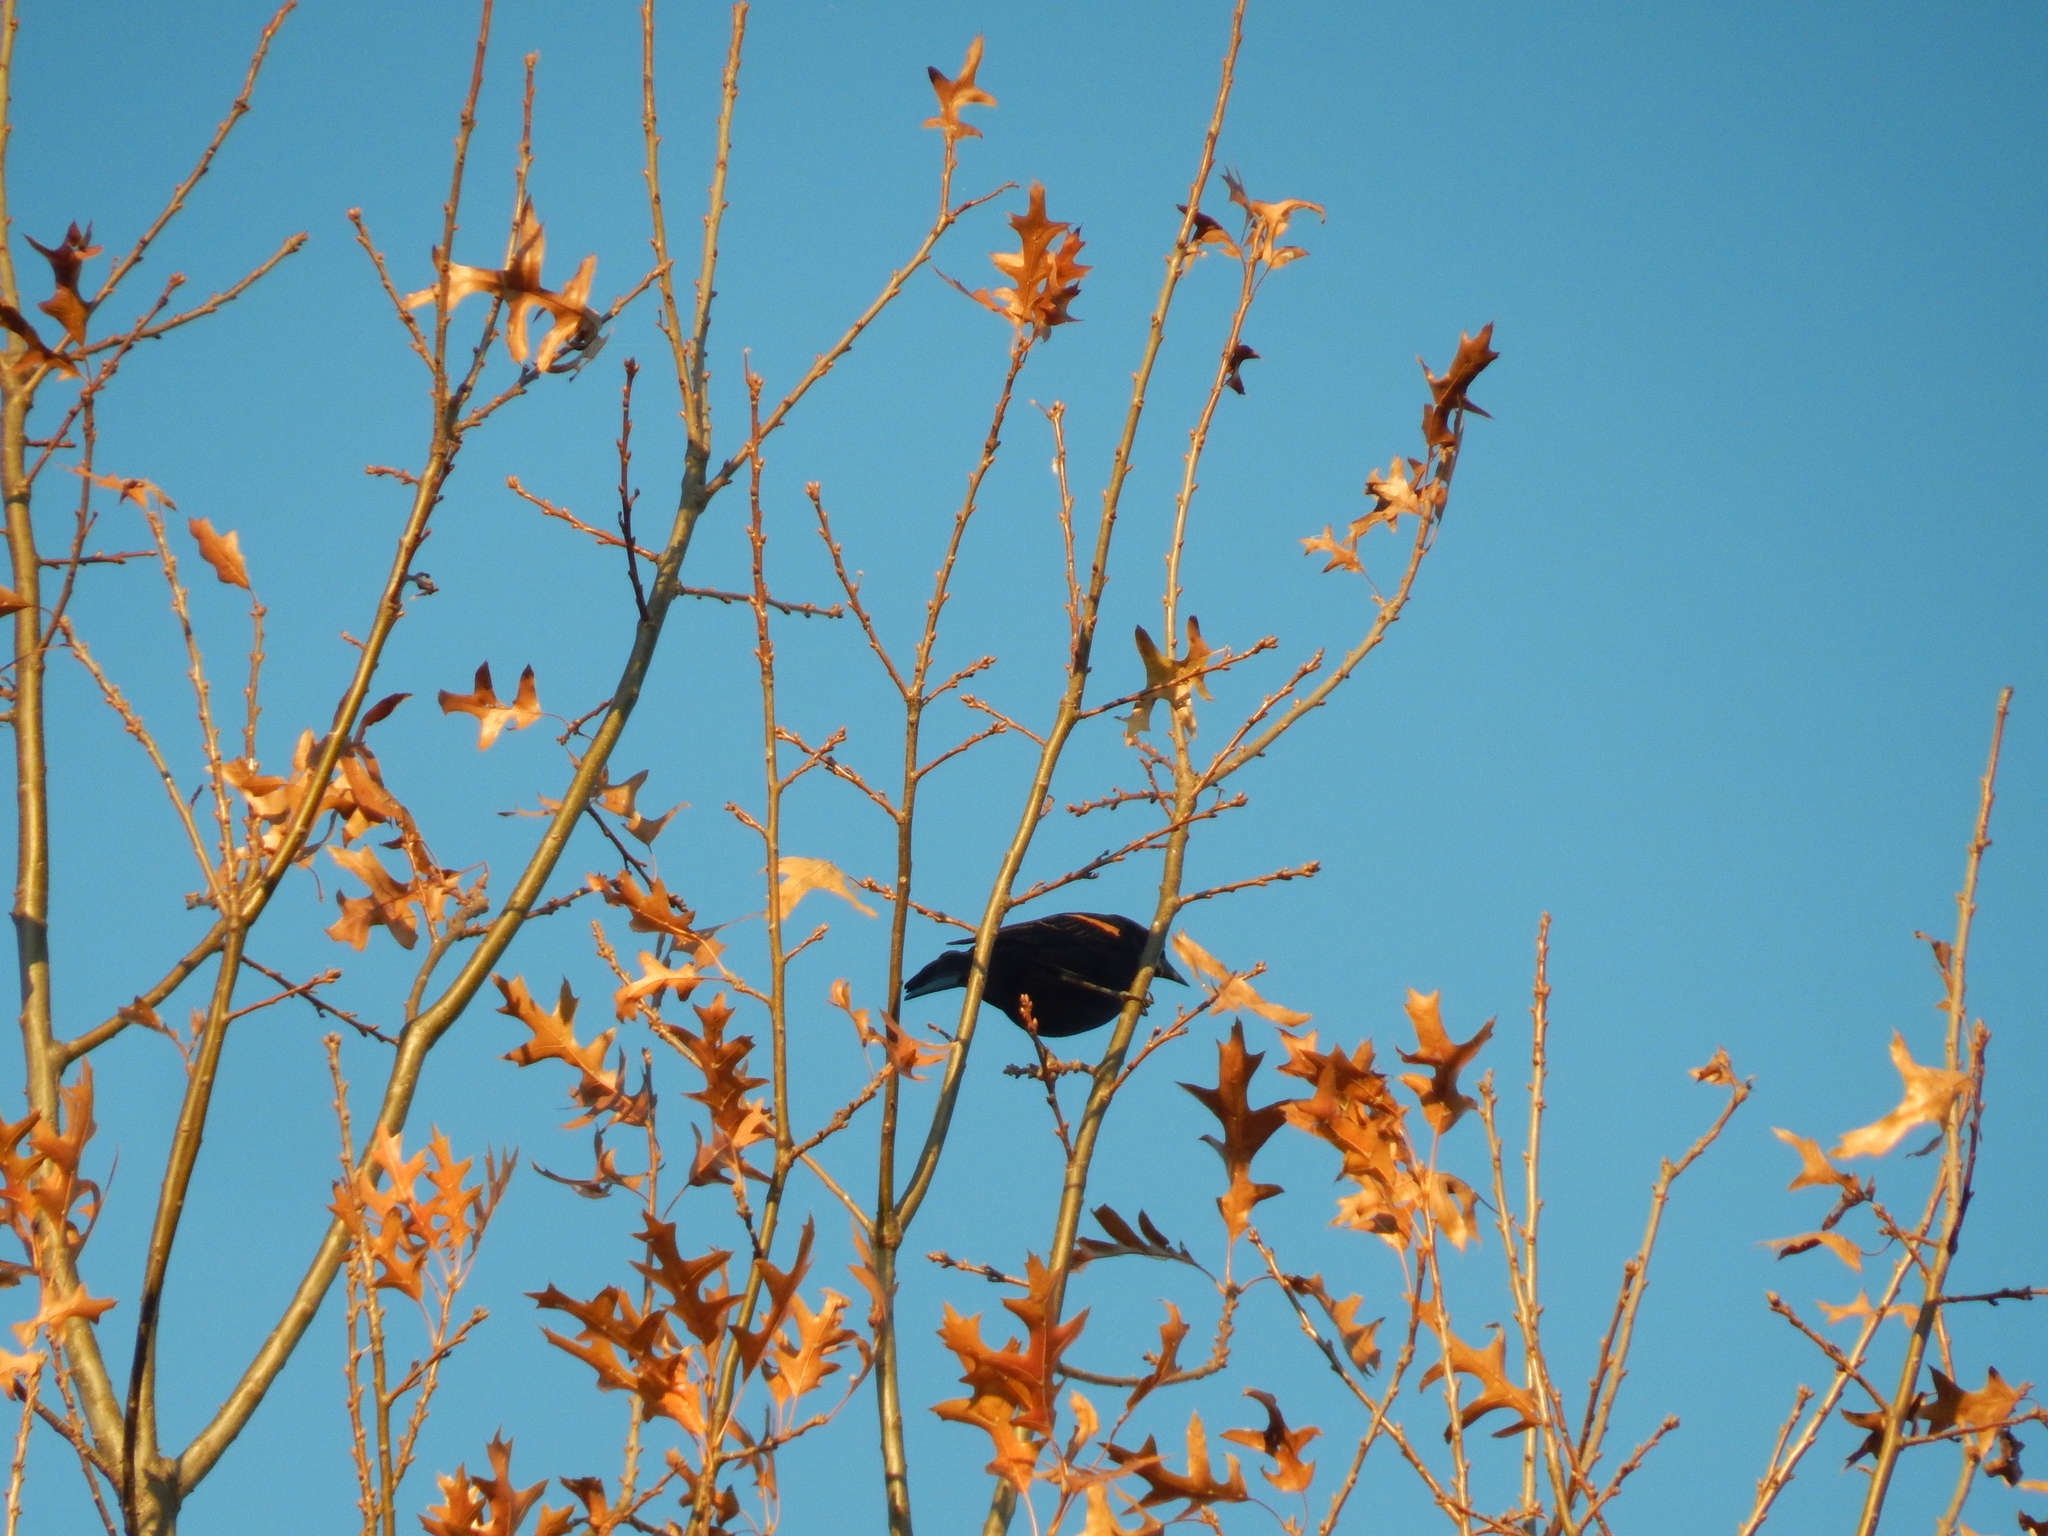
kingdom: Animalia
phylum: Chordata
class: Aves
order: Passeriformes
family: Icteridae
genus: Agelaius
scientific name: Agelaius phoeniceus
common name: Red-winged blackbird
